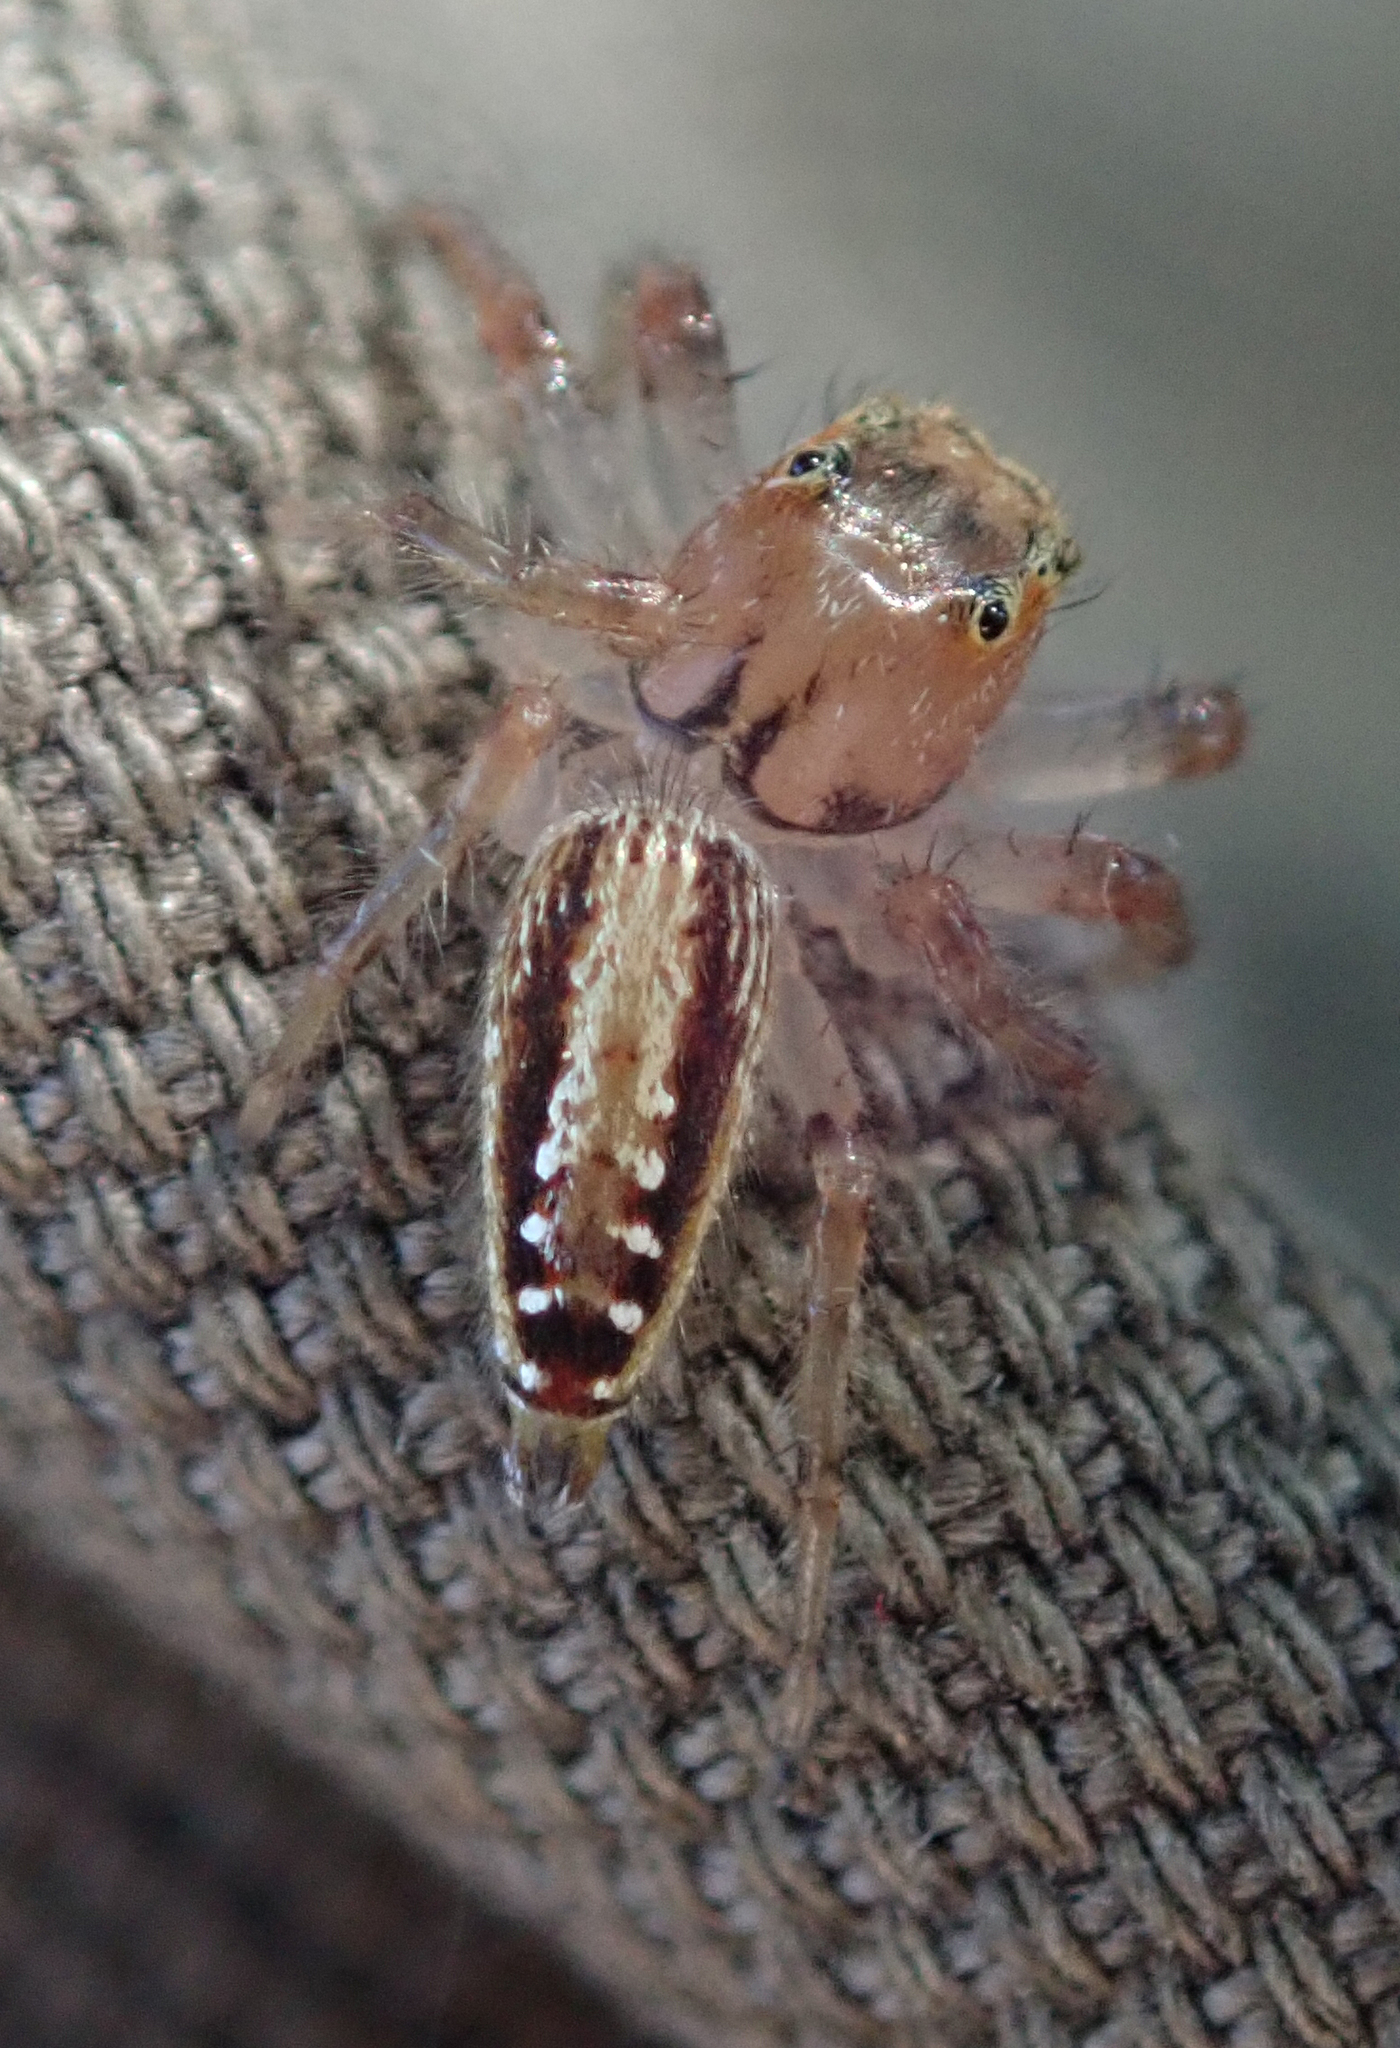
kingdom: Animalia
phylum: Arthropoda
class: Arachnida
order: Araneae
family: Salticidae
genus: Thyene
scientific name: Thyene ogdeni
